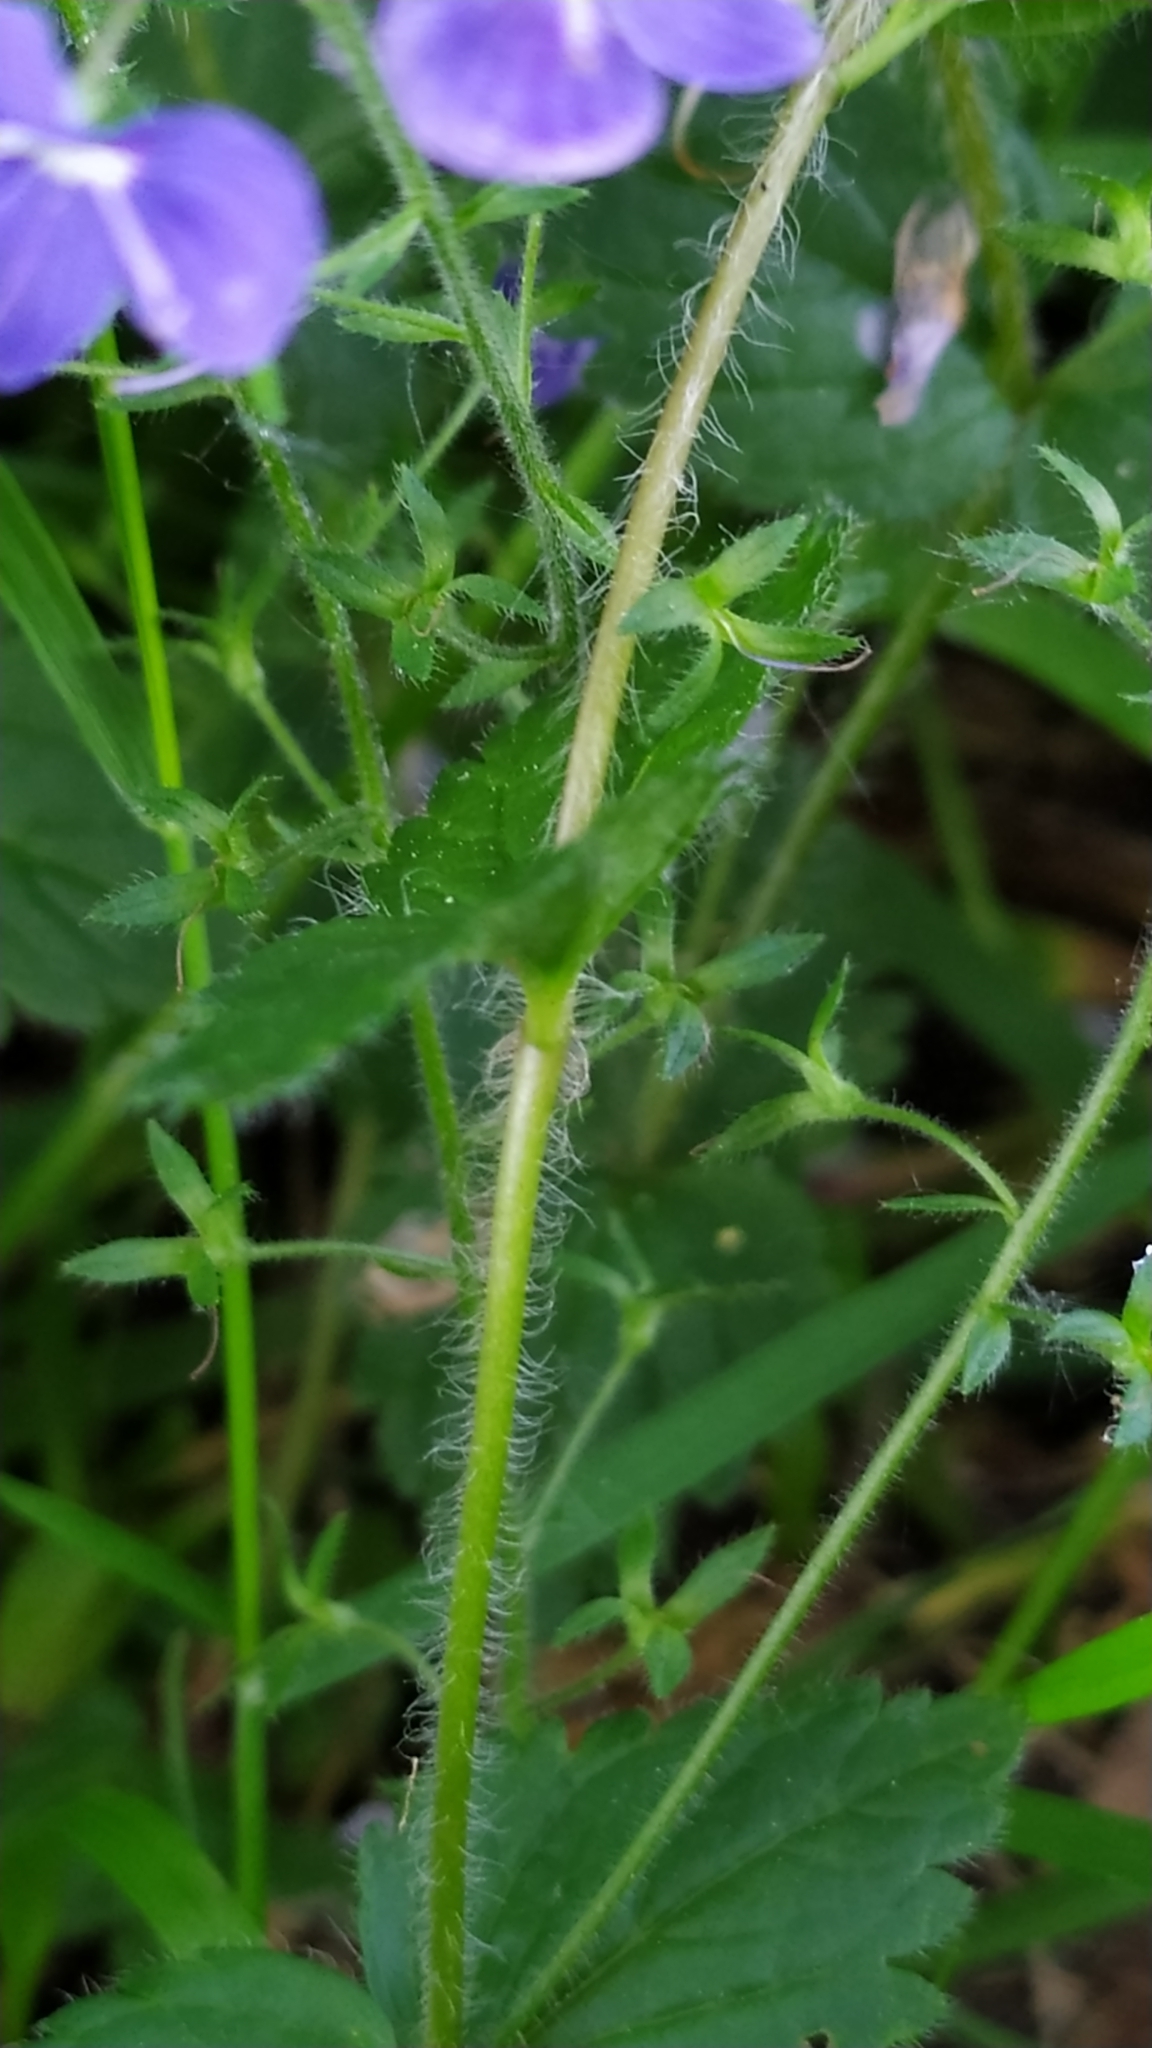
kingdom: Plantae
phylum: Tracheophyta
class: Magnoliopsida
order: Lamiales
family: Plantaginaceae
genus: Veronica
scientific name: Veronica chamaedrys
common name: Germander speedwell
